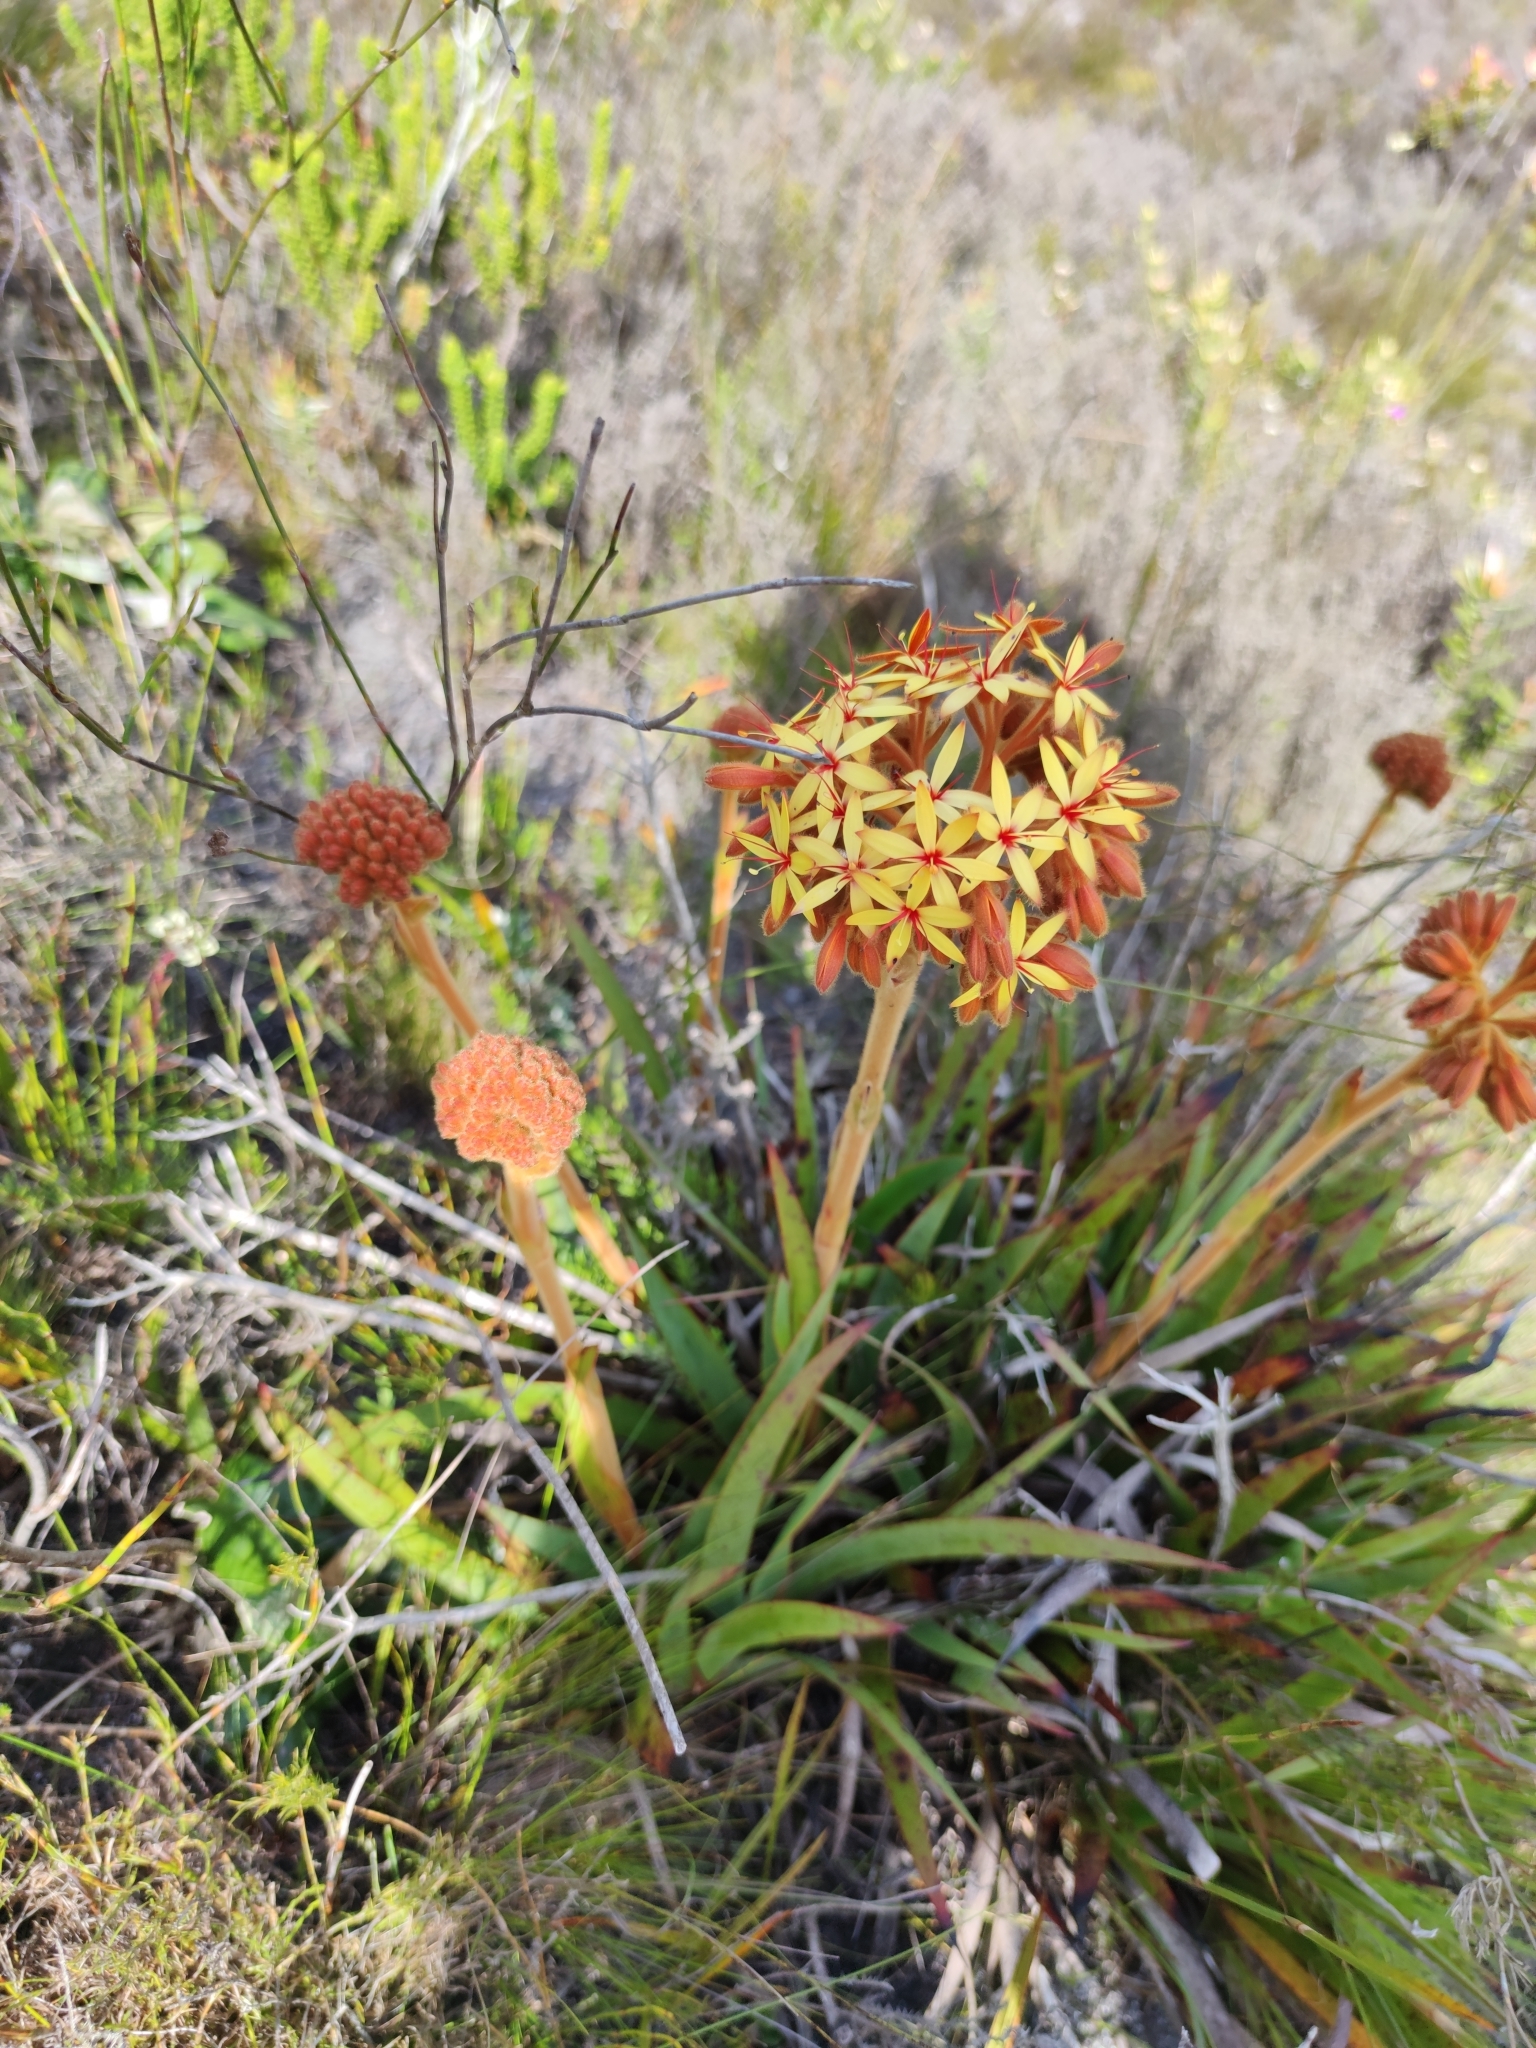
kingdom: Plantae
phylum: Tracheophyta
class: Liliopsida
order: Commelinales
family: Haemodoraceae
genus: Dilatris
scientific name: Dilatris viscosa
